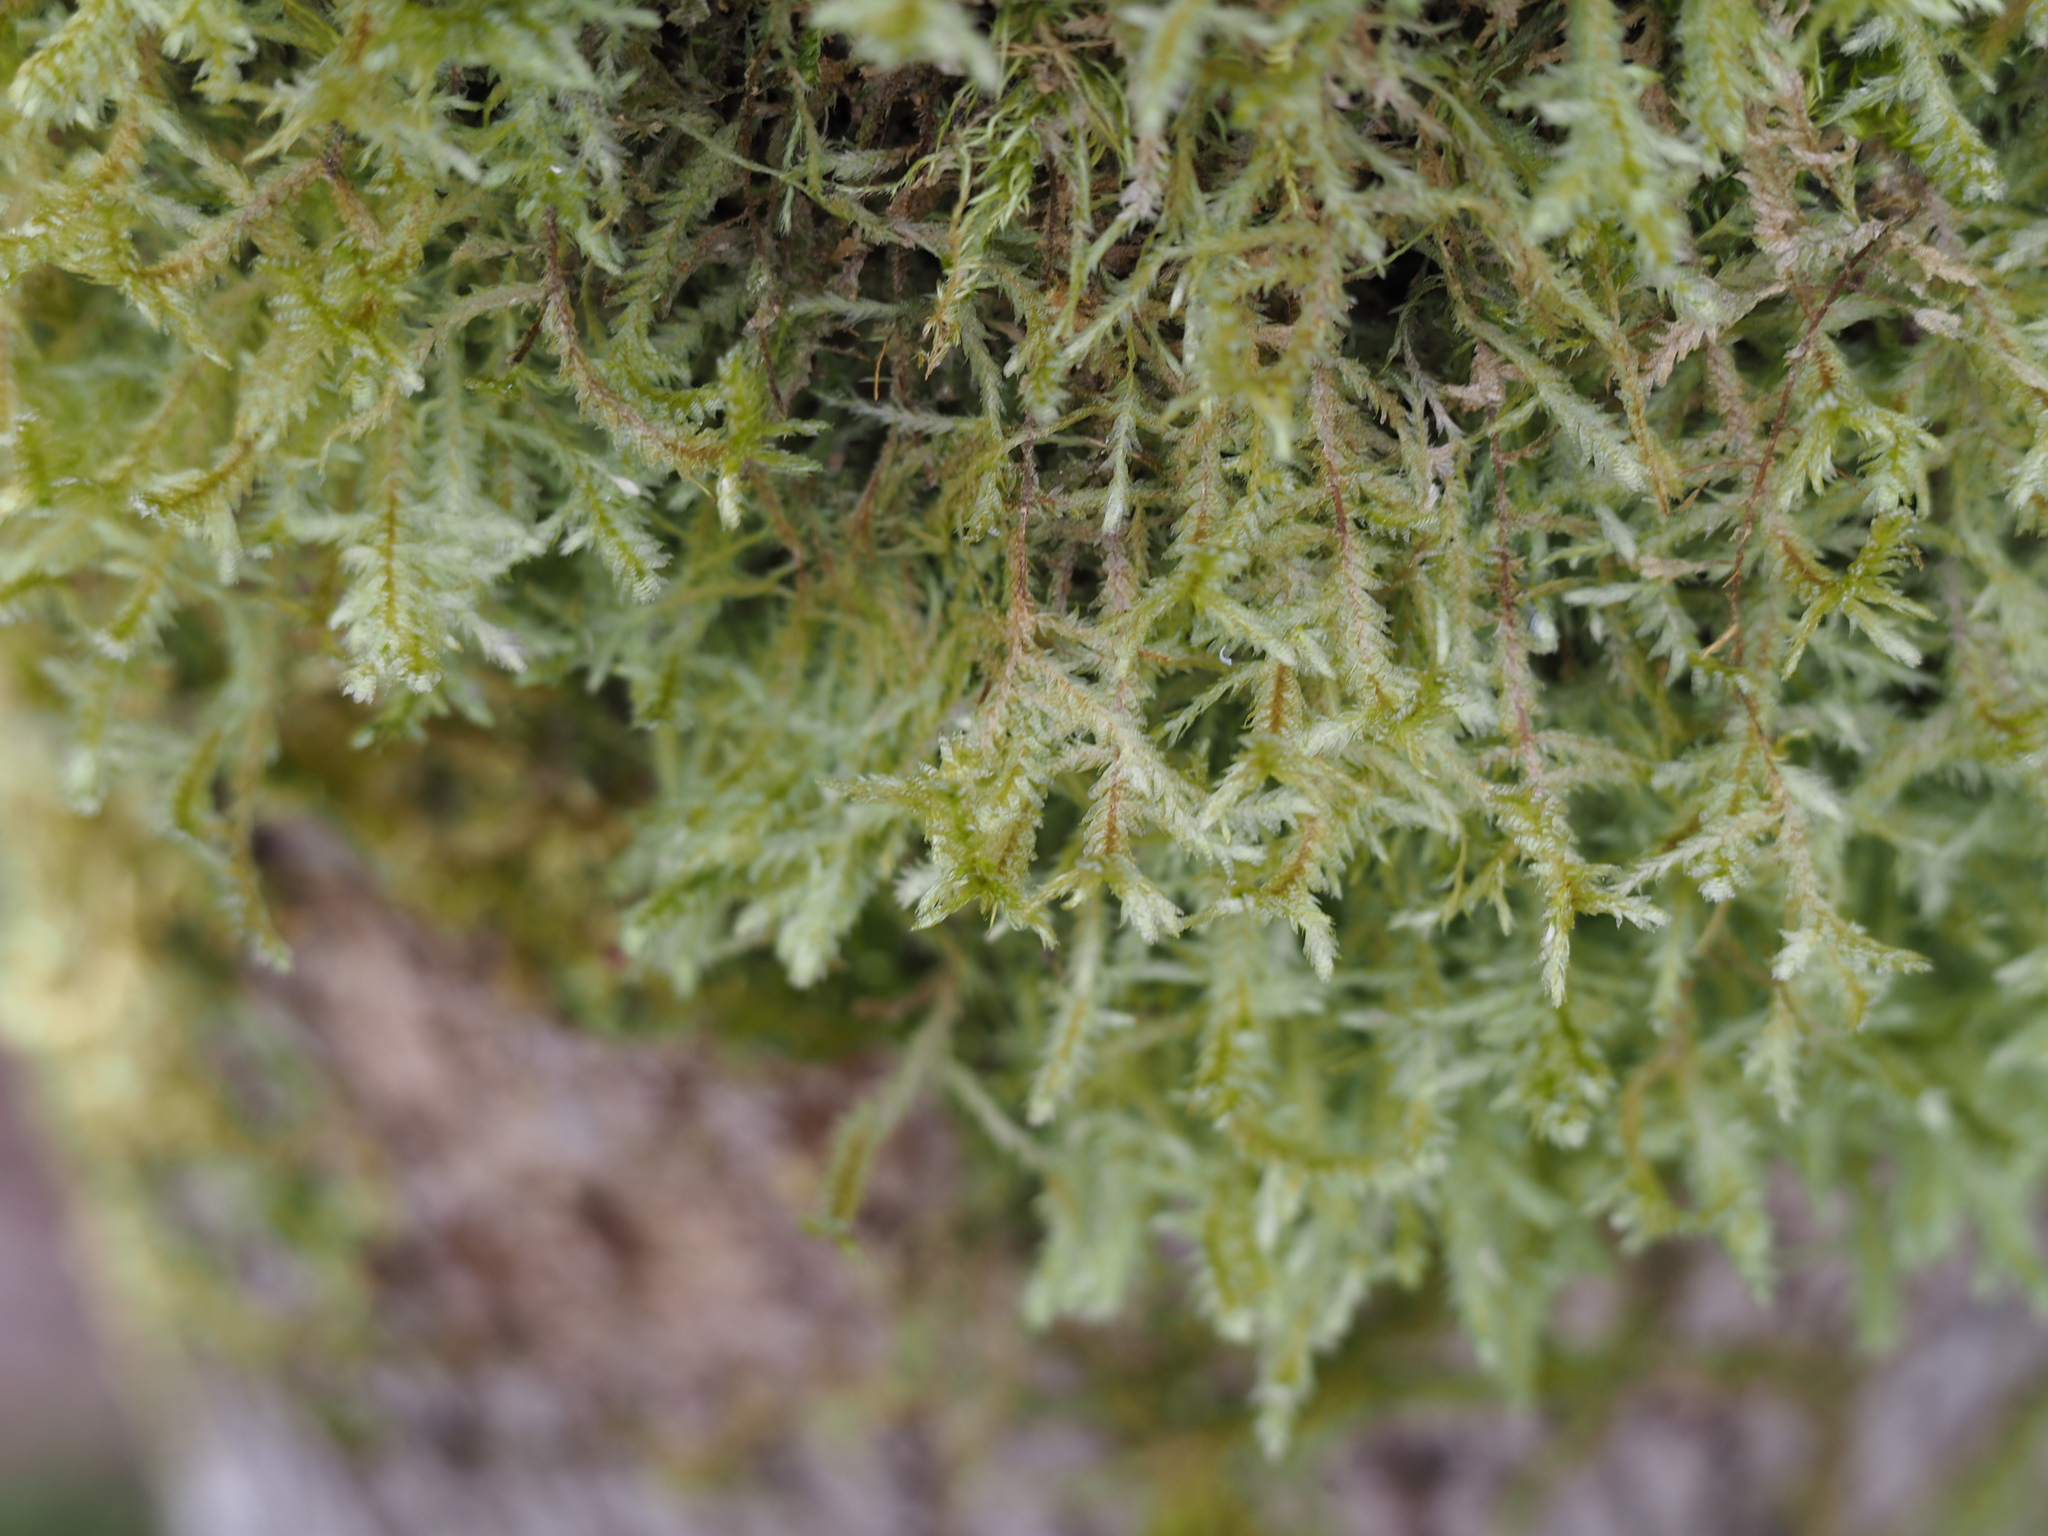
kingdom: Plantae
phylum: Bryophyta
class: Bryopsida
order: Hypnales
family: Neckeraceae
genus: Neckera
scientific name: Neckera douglasii
